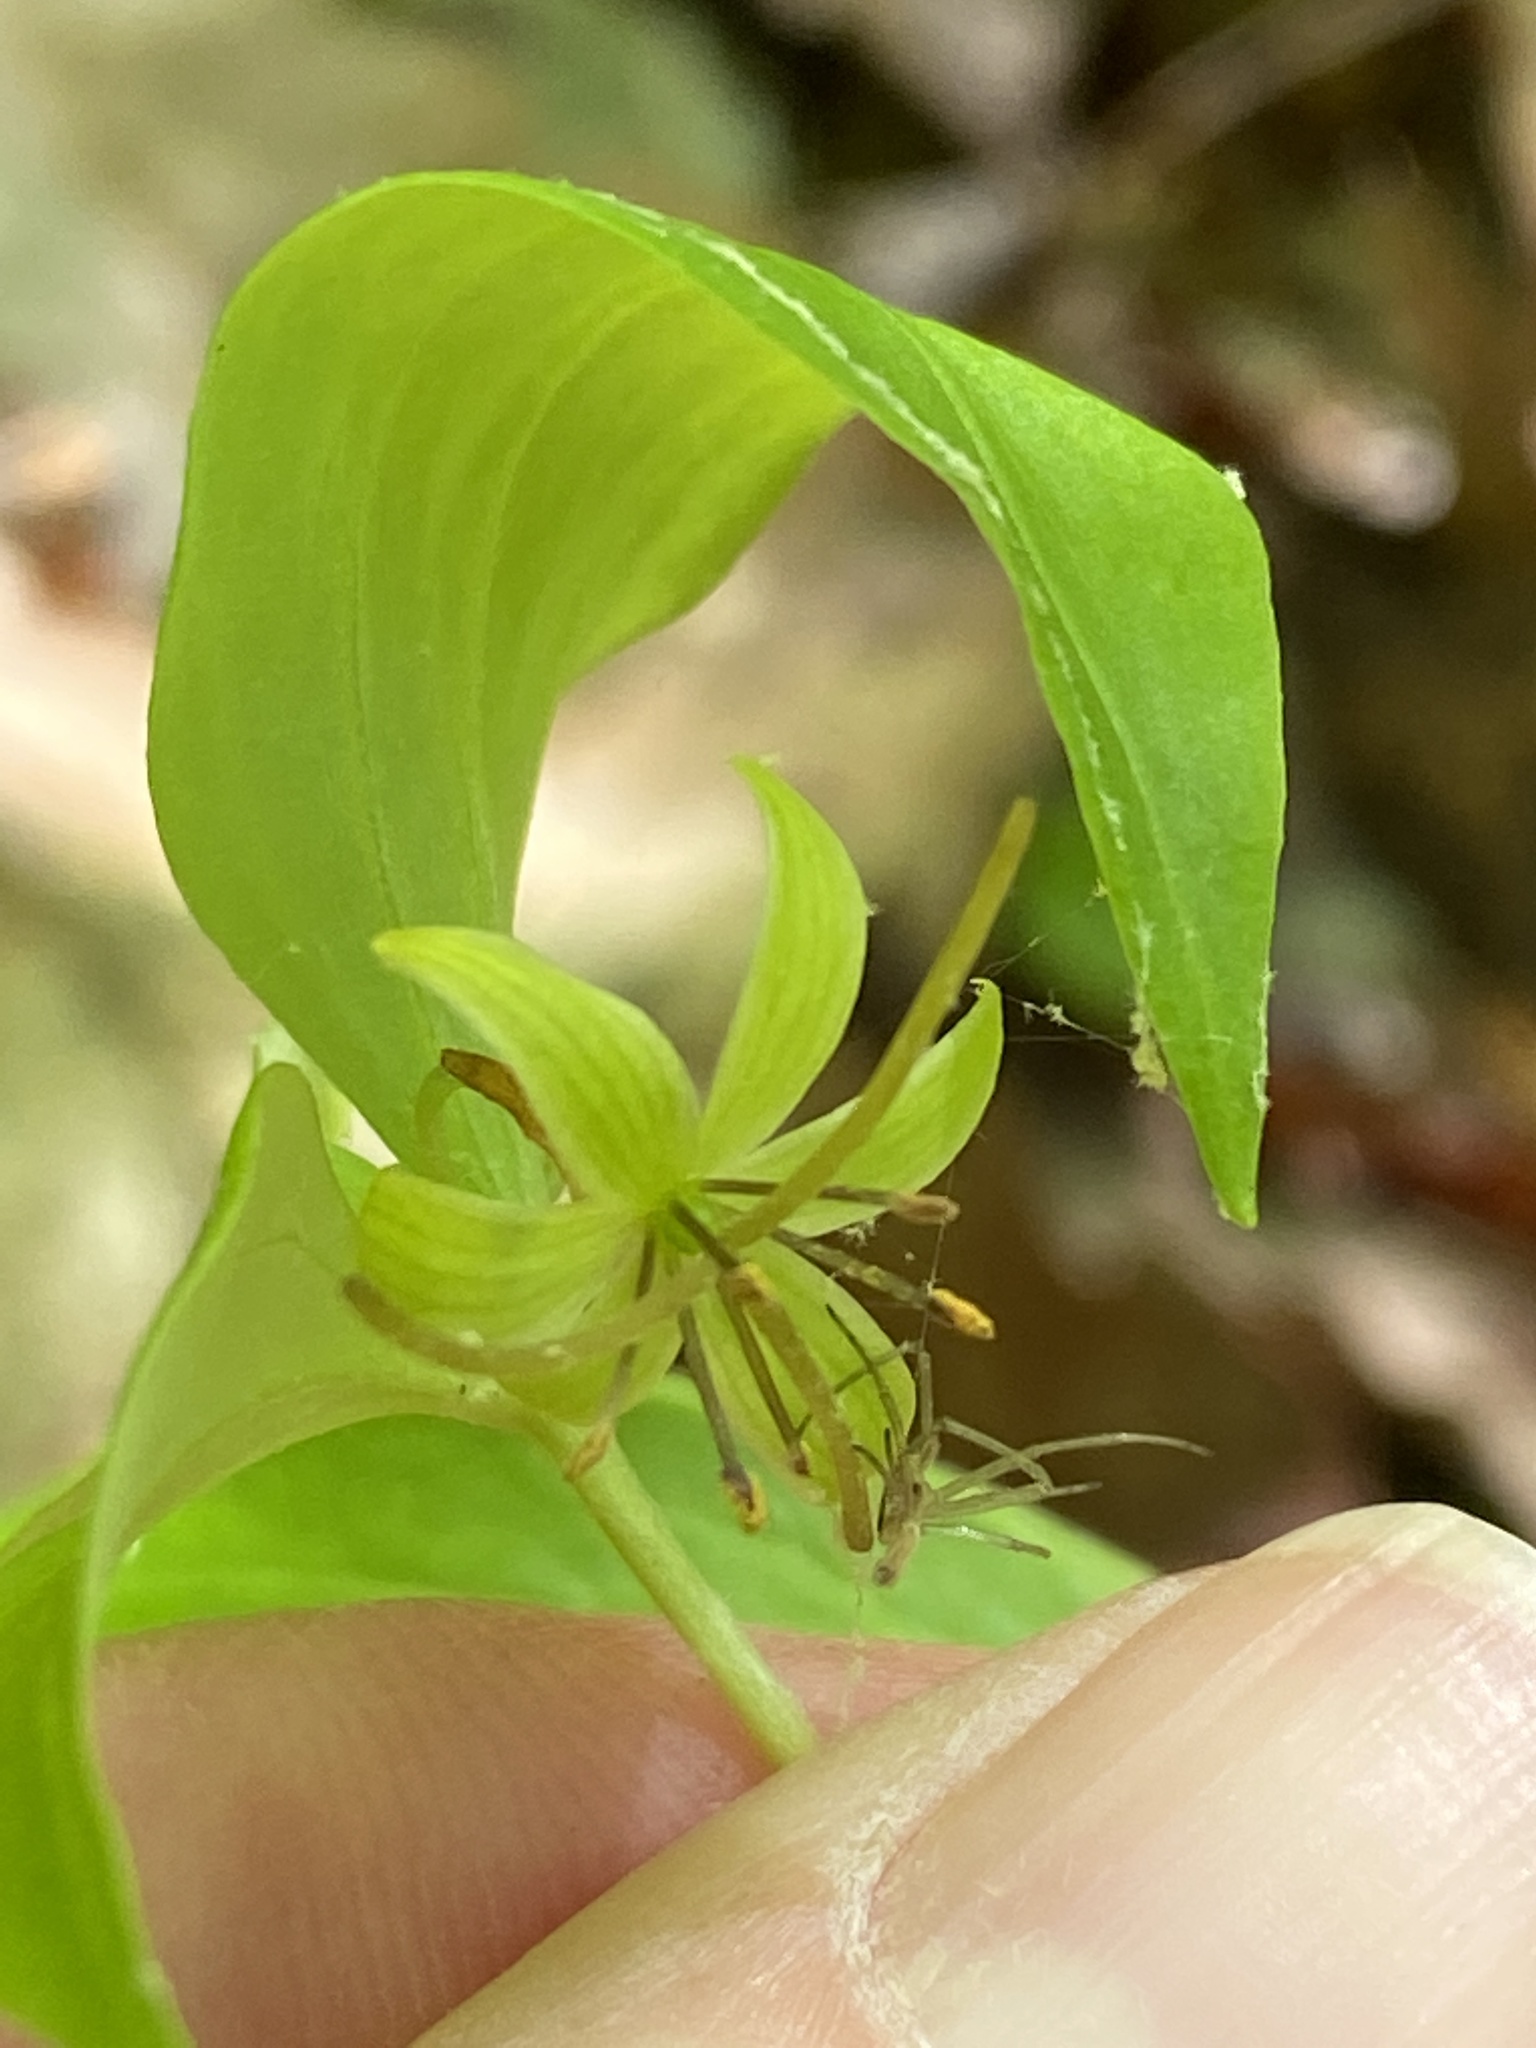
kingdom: Plantae
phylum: Tracheophyta
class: Liliopsida
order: Liliales
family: Liliaceae
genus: Medeola
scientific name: Medeola virginiana
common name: Indian cucumber-root
